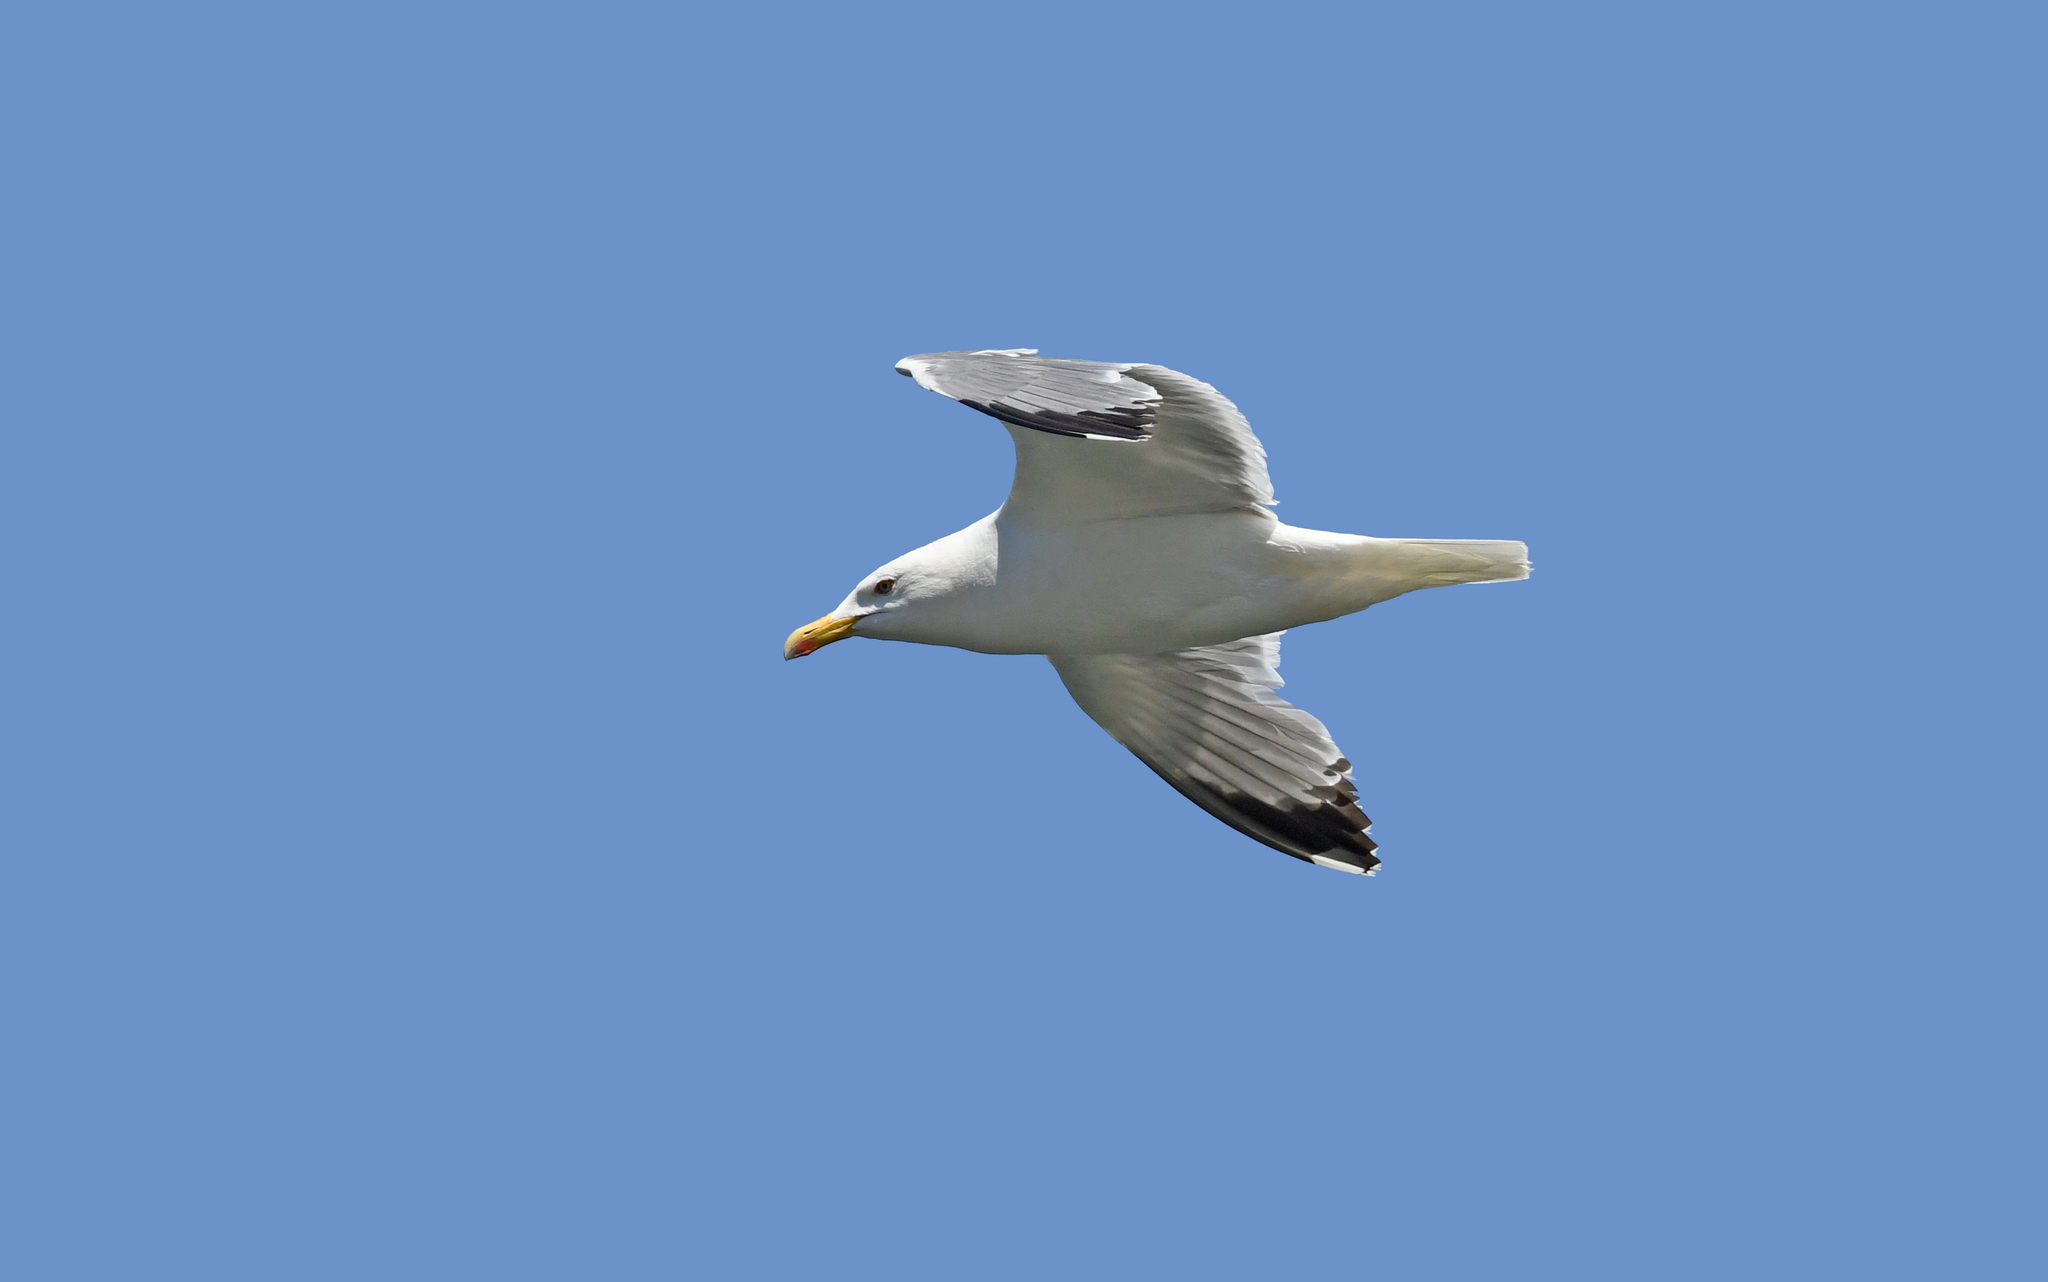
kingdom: Animalia
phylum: Chordata
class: Aves
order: Charadriiformes
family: Laridae
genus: Larus
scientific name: Larus michahellis
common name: Yellow-legged gull
